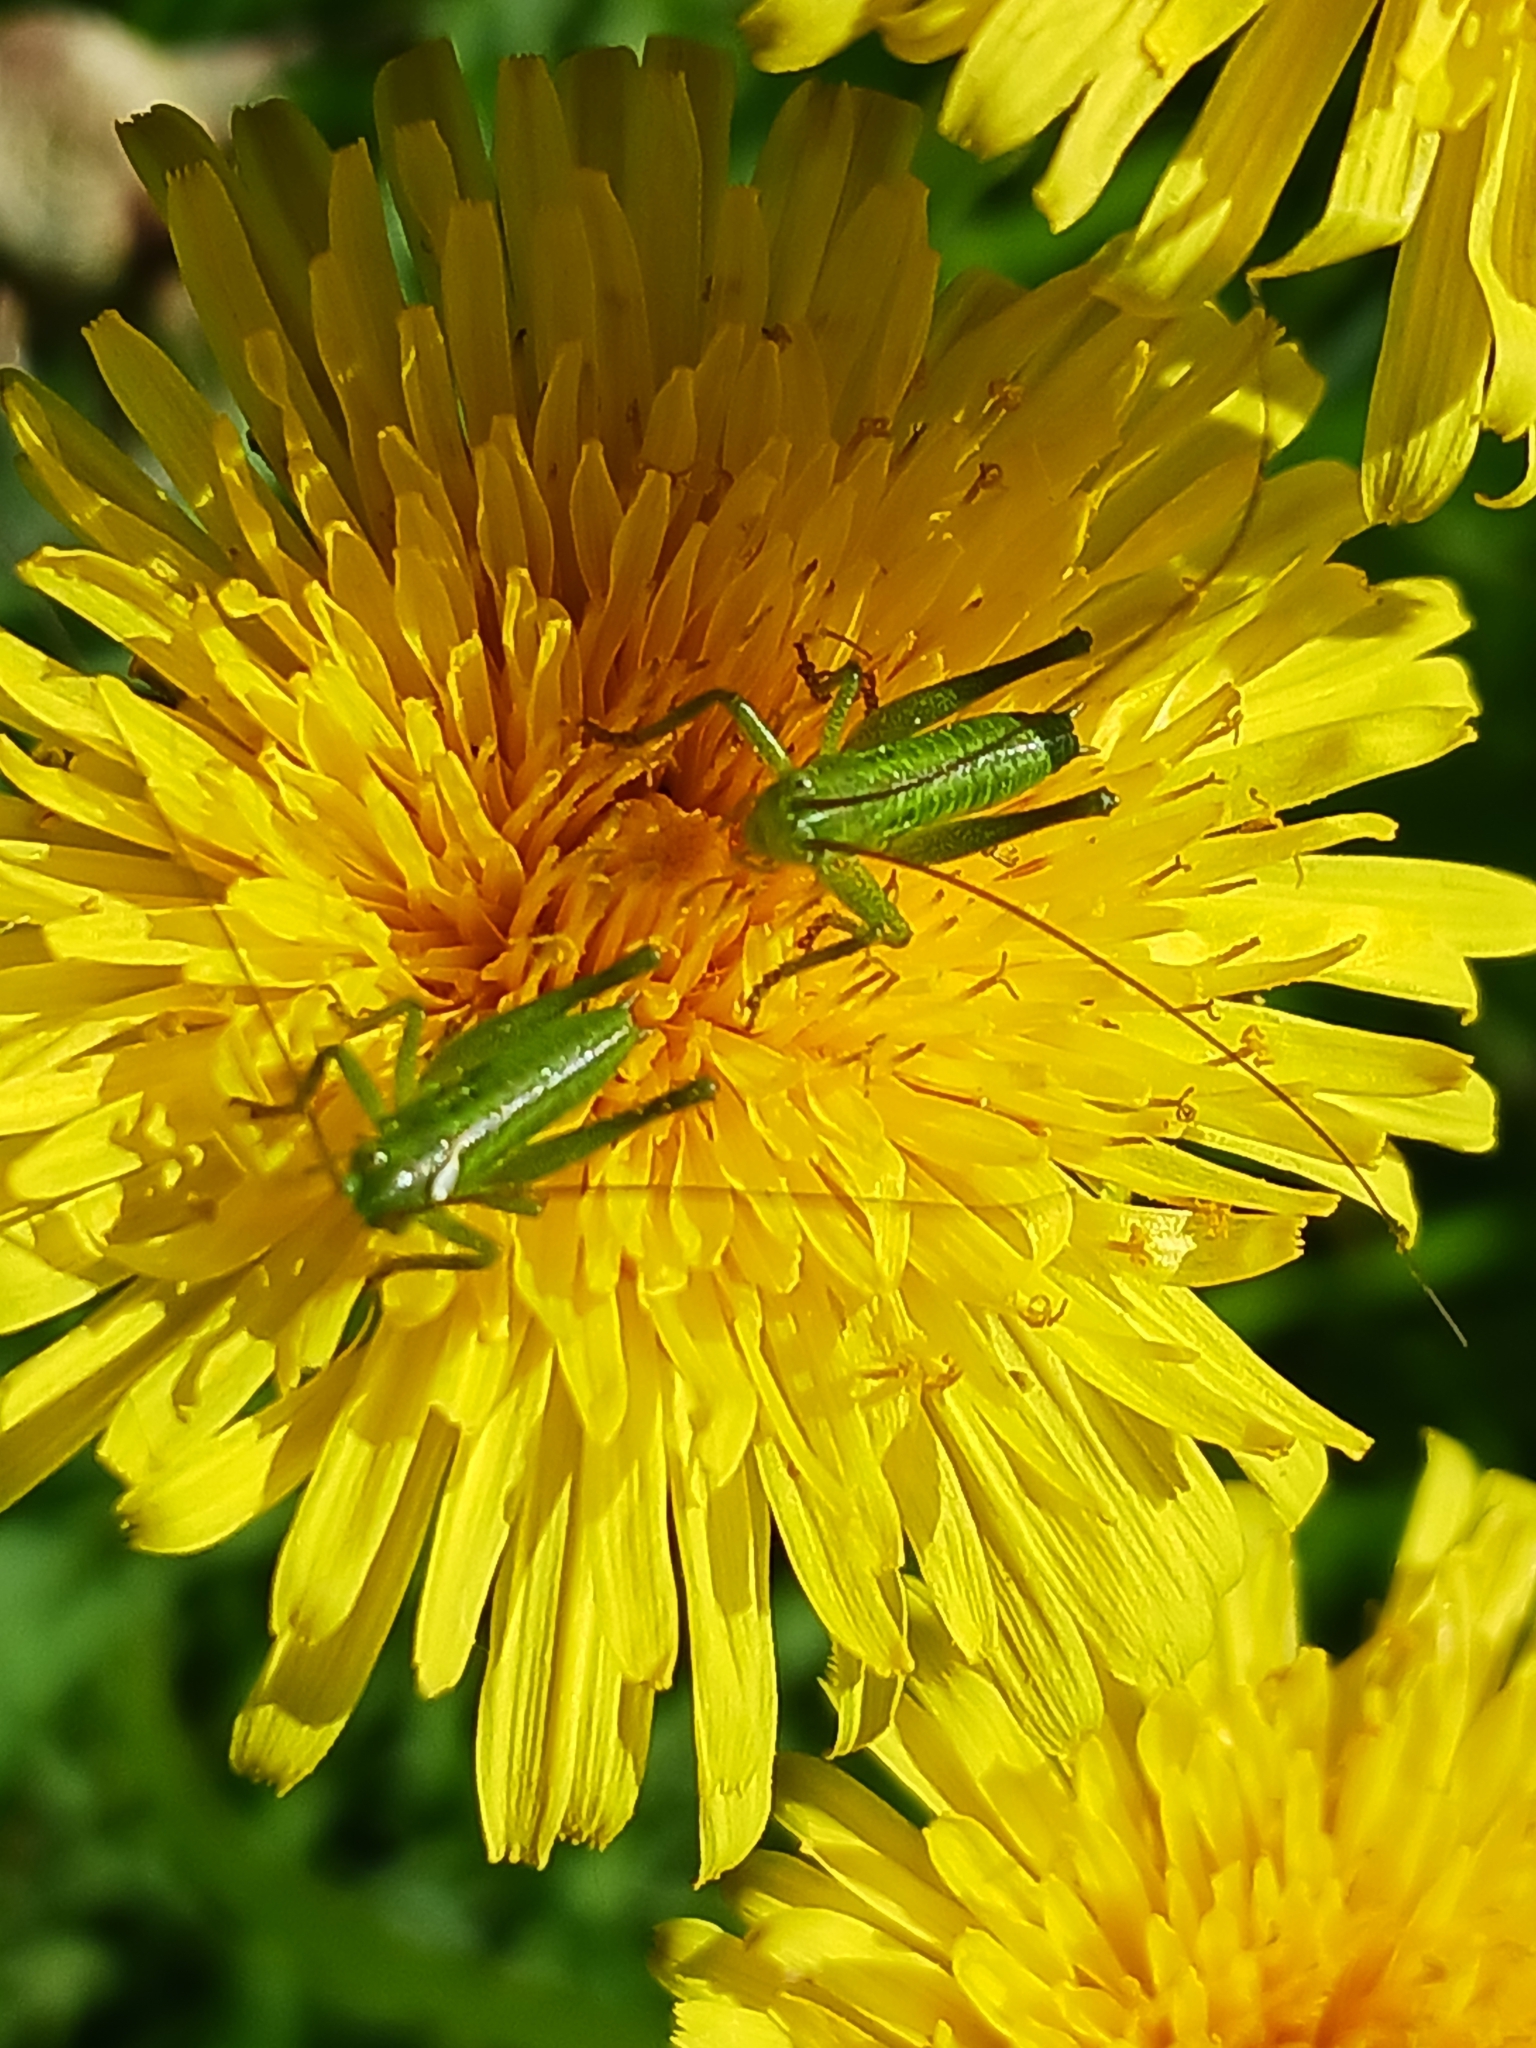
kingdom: Animalia
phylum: Arthropoda
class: Insecta
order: Orthoptera
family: Tettigoniidae
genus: Tettigonia
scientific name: Tettigonia viridissima
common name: Great green bush-cricket
